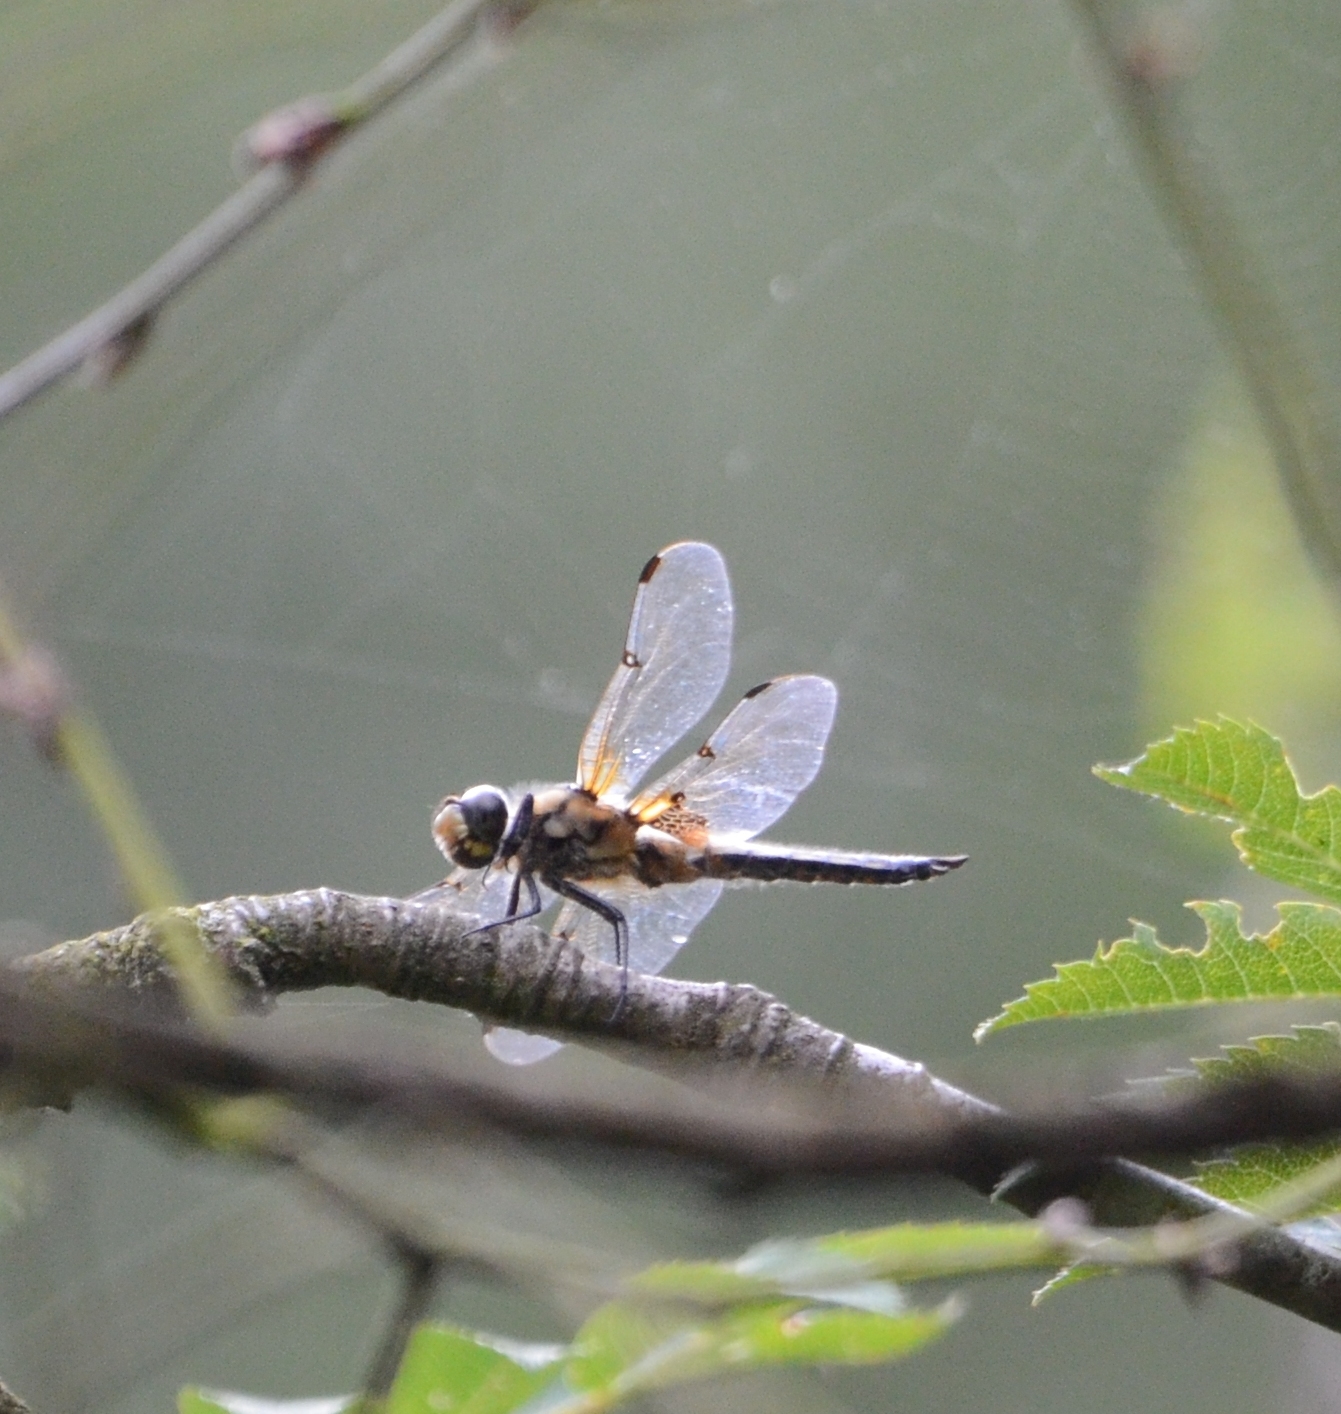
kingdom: Animalia
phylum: Arthropoda
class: Insecta
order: Odonata
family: Libellulidae
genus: Libellula
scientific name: Libellula quadrimaculata
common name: Four-spotted chaser
